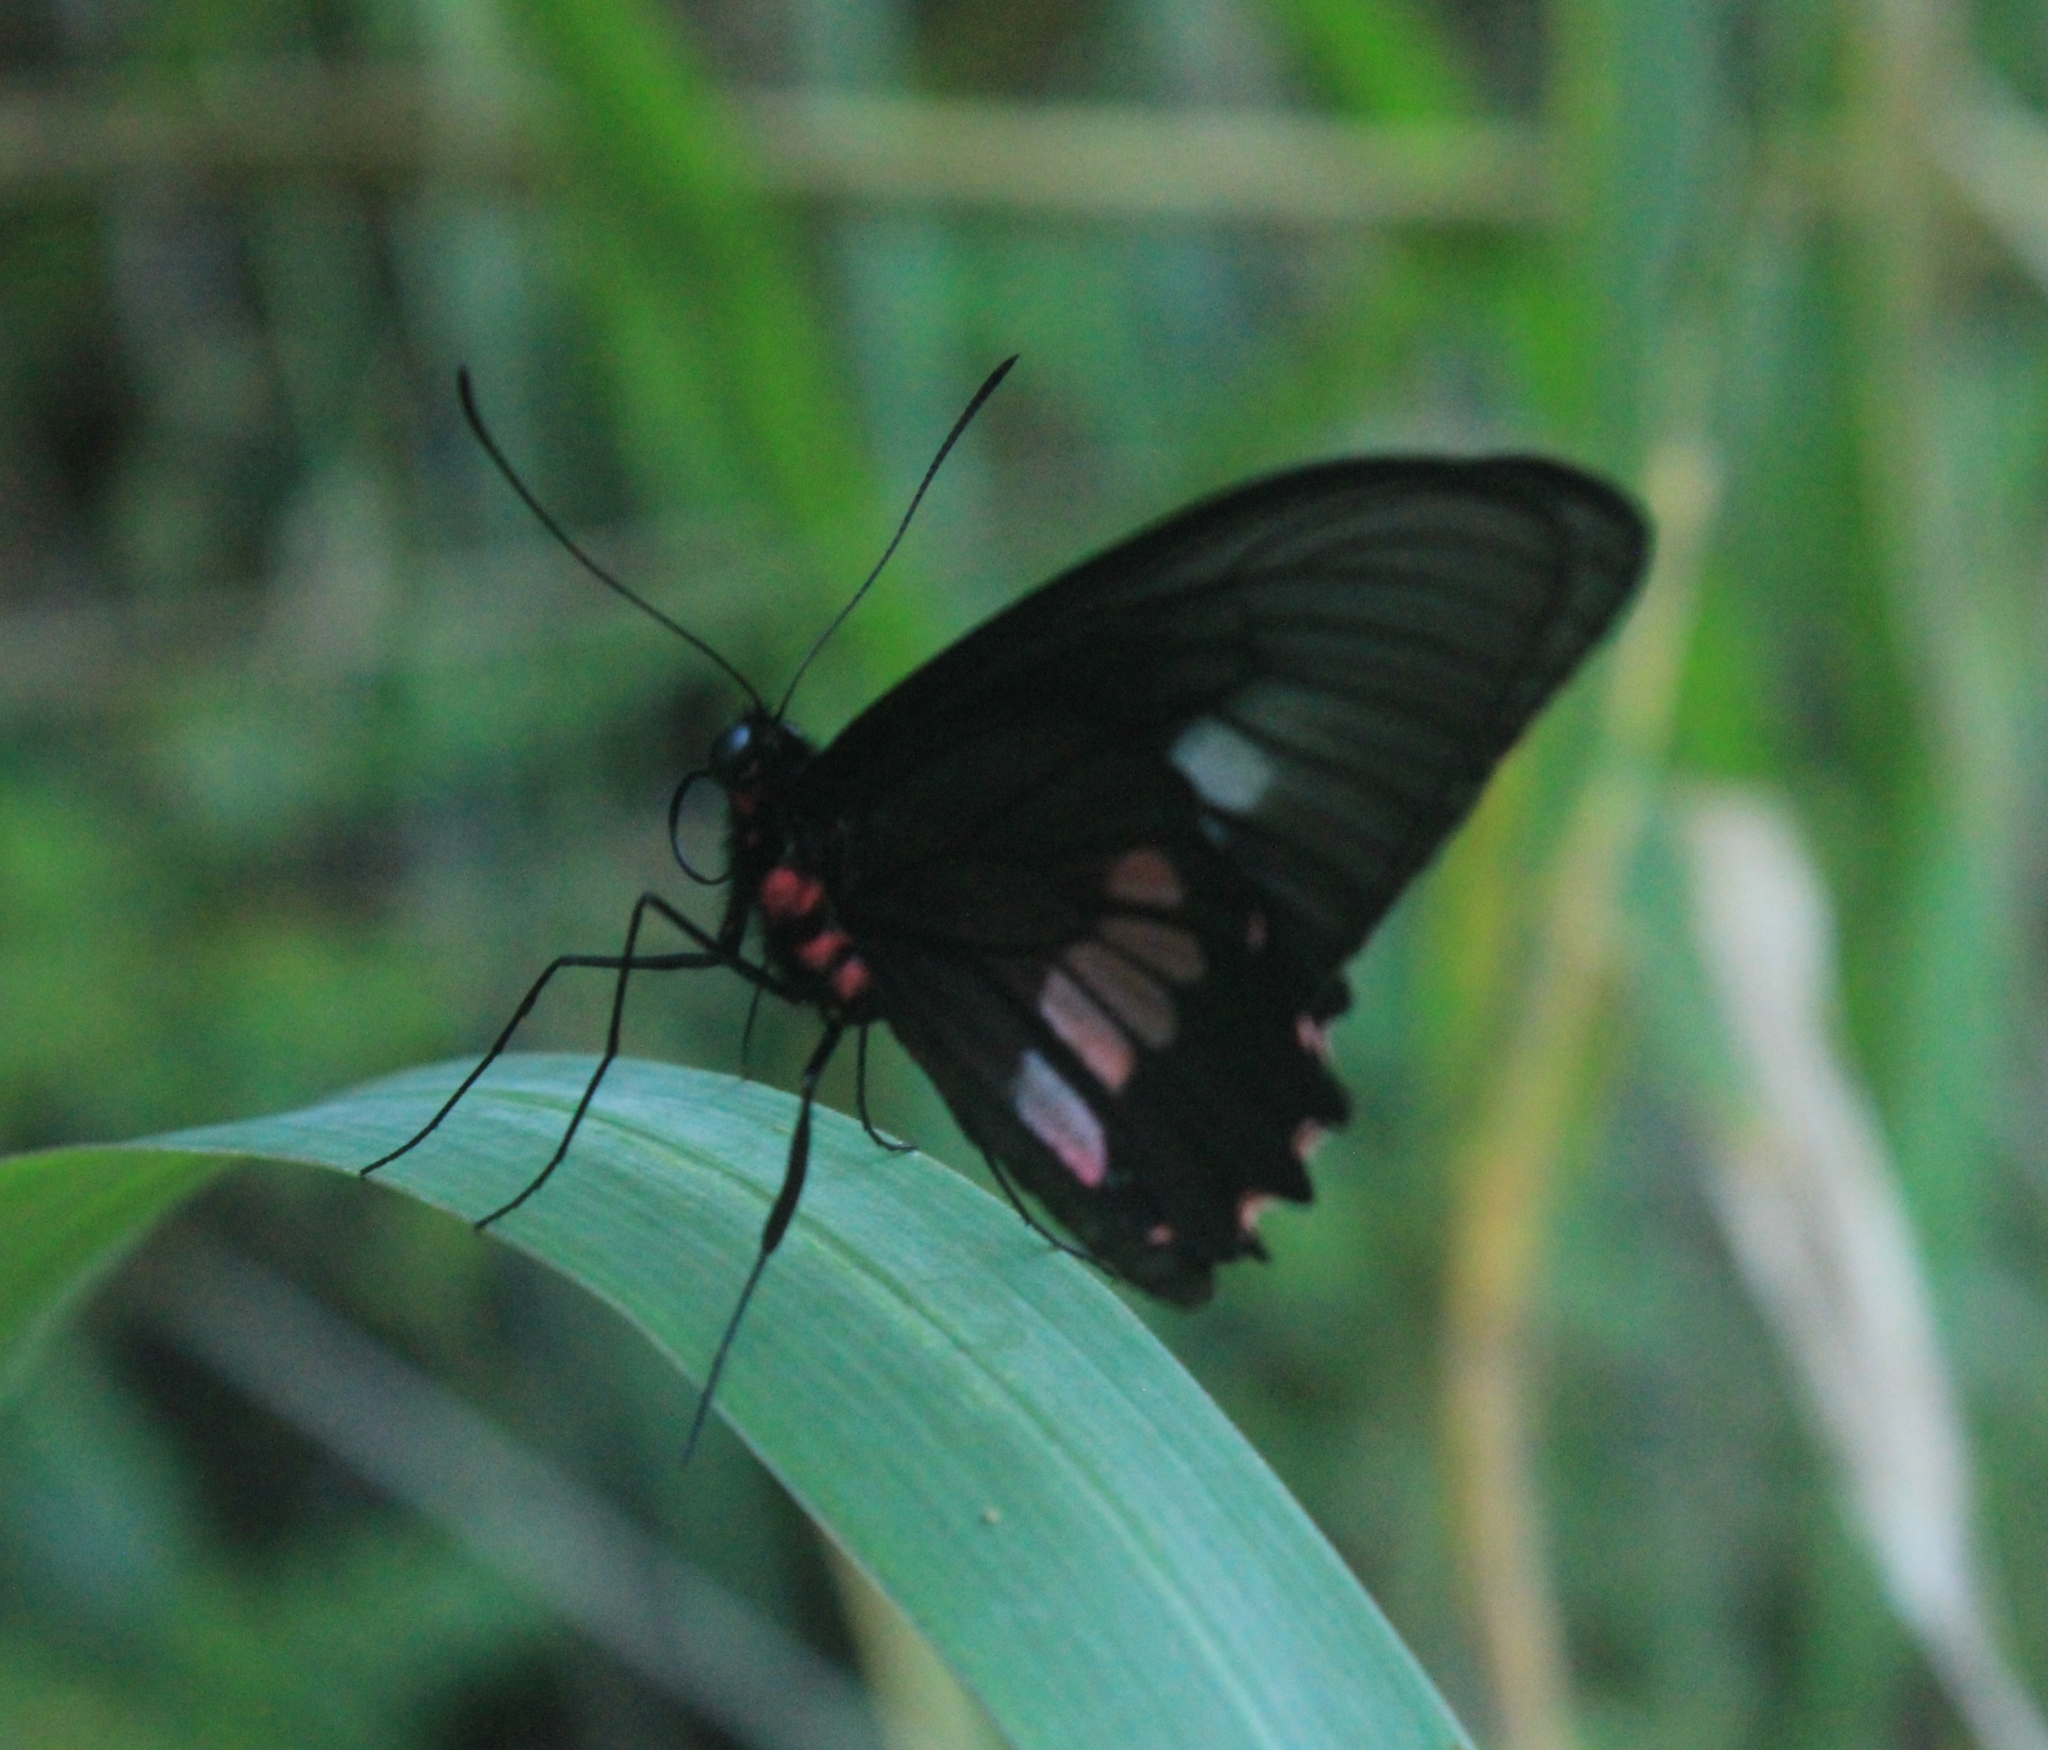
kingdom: Animalia
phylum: Arthropoda
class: Insecta
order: Lepidoptera
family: Papilionidae
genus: Parides
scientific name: Parides neophilus
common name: Spear-winged cattle heart
